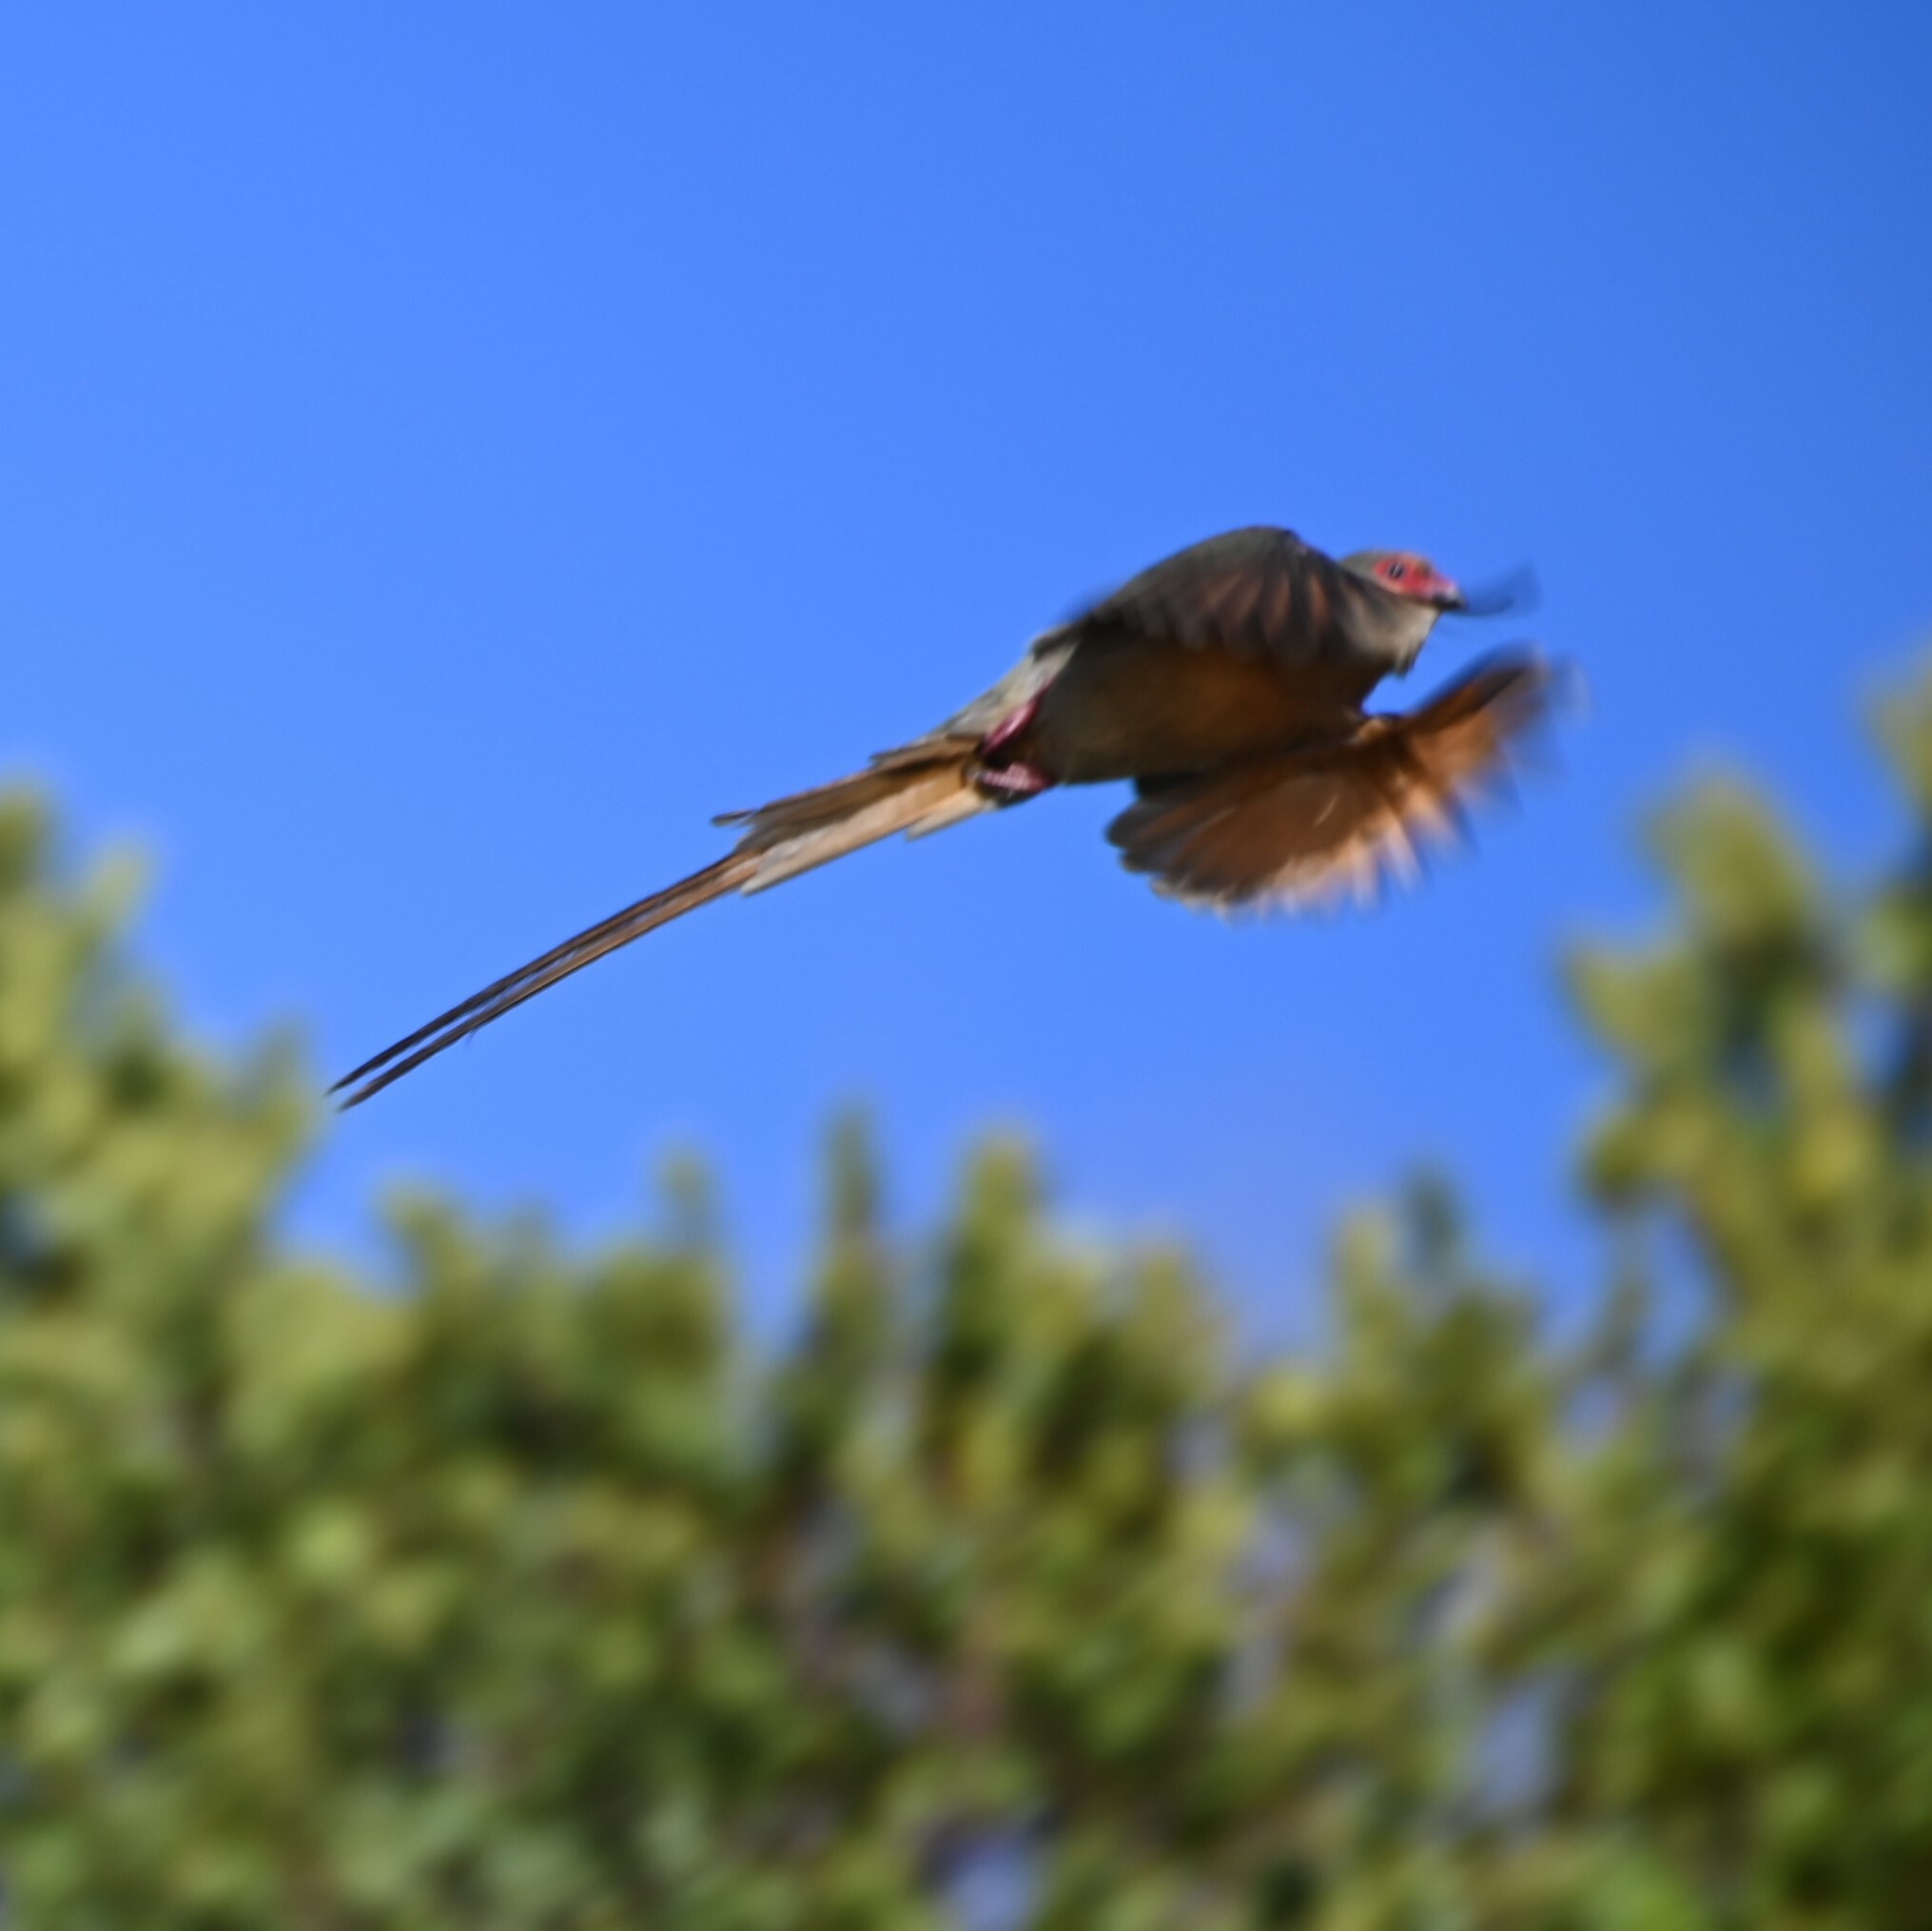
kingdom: Animalia
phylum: Chordata
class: Aves
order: Coliiformes
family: Coliidae
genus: Urocolius
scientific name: Urocolius indicus
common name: Red-faced mousebird
